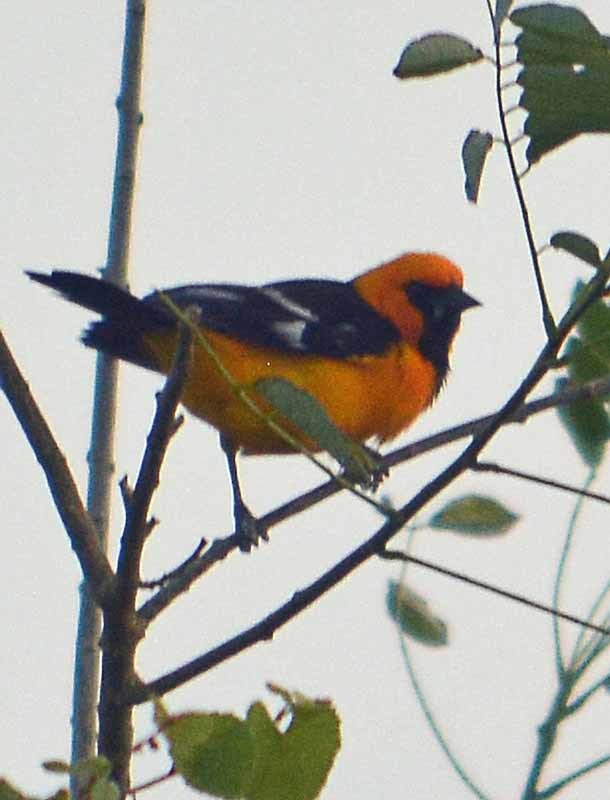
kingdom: Animalia
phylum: Chordata
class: Aves
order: Passeriformes
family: Icteridae
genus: Icterus
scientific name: Icterus gularis
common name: Altamira oriole
